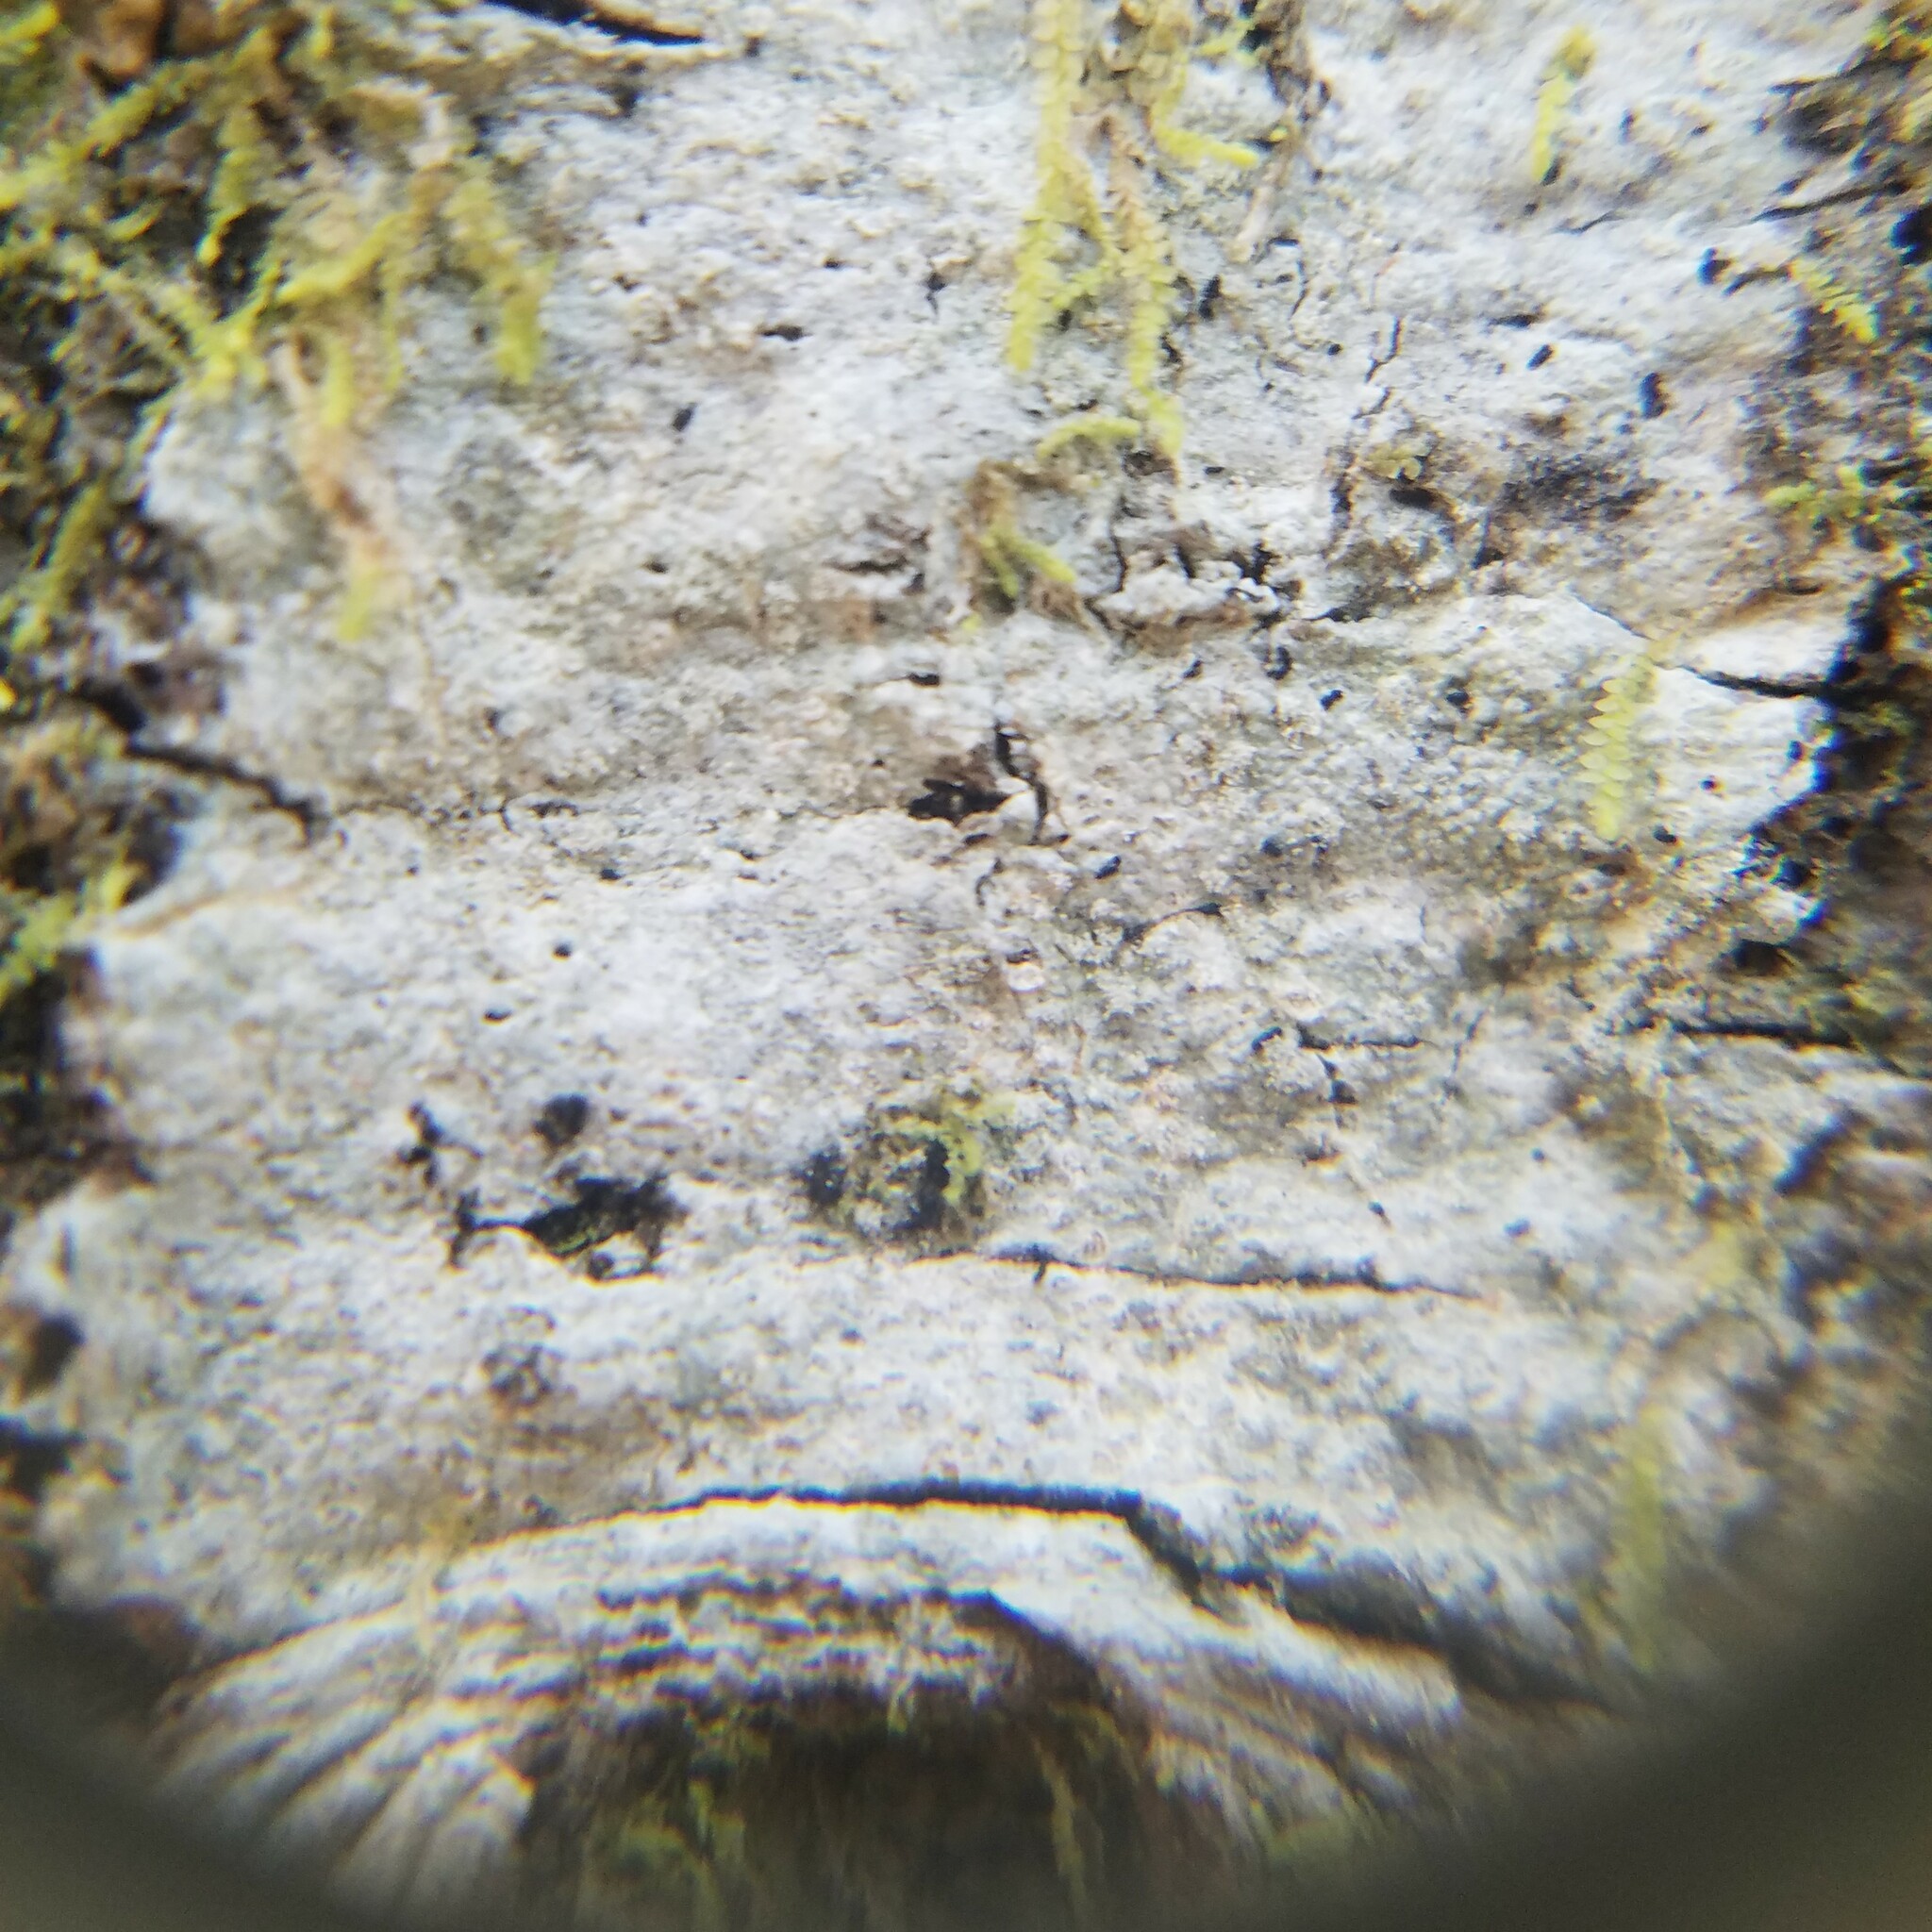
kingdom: Fungi
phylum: Ascomycota
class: Lecanoromycetes
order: Ostropales
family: Graphidaceae
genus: Nadvornikia
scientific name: Nadvornikia sorediata
